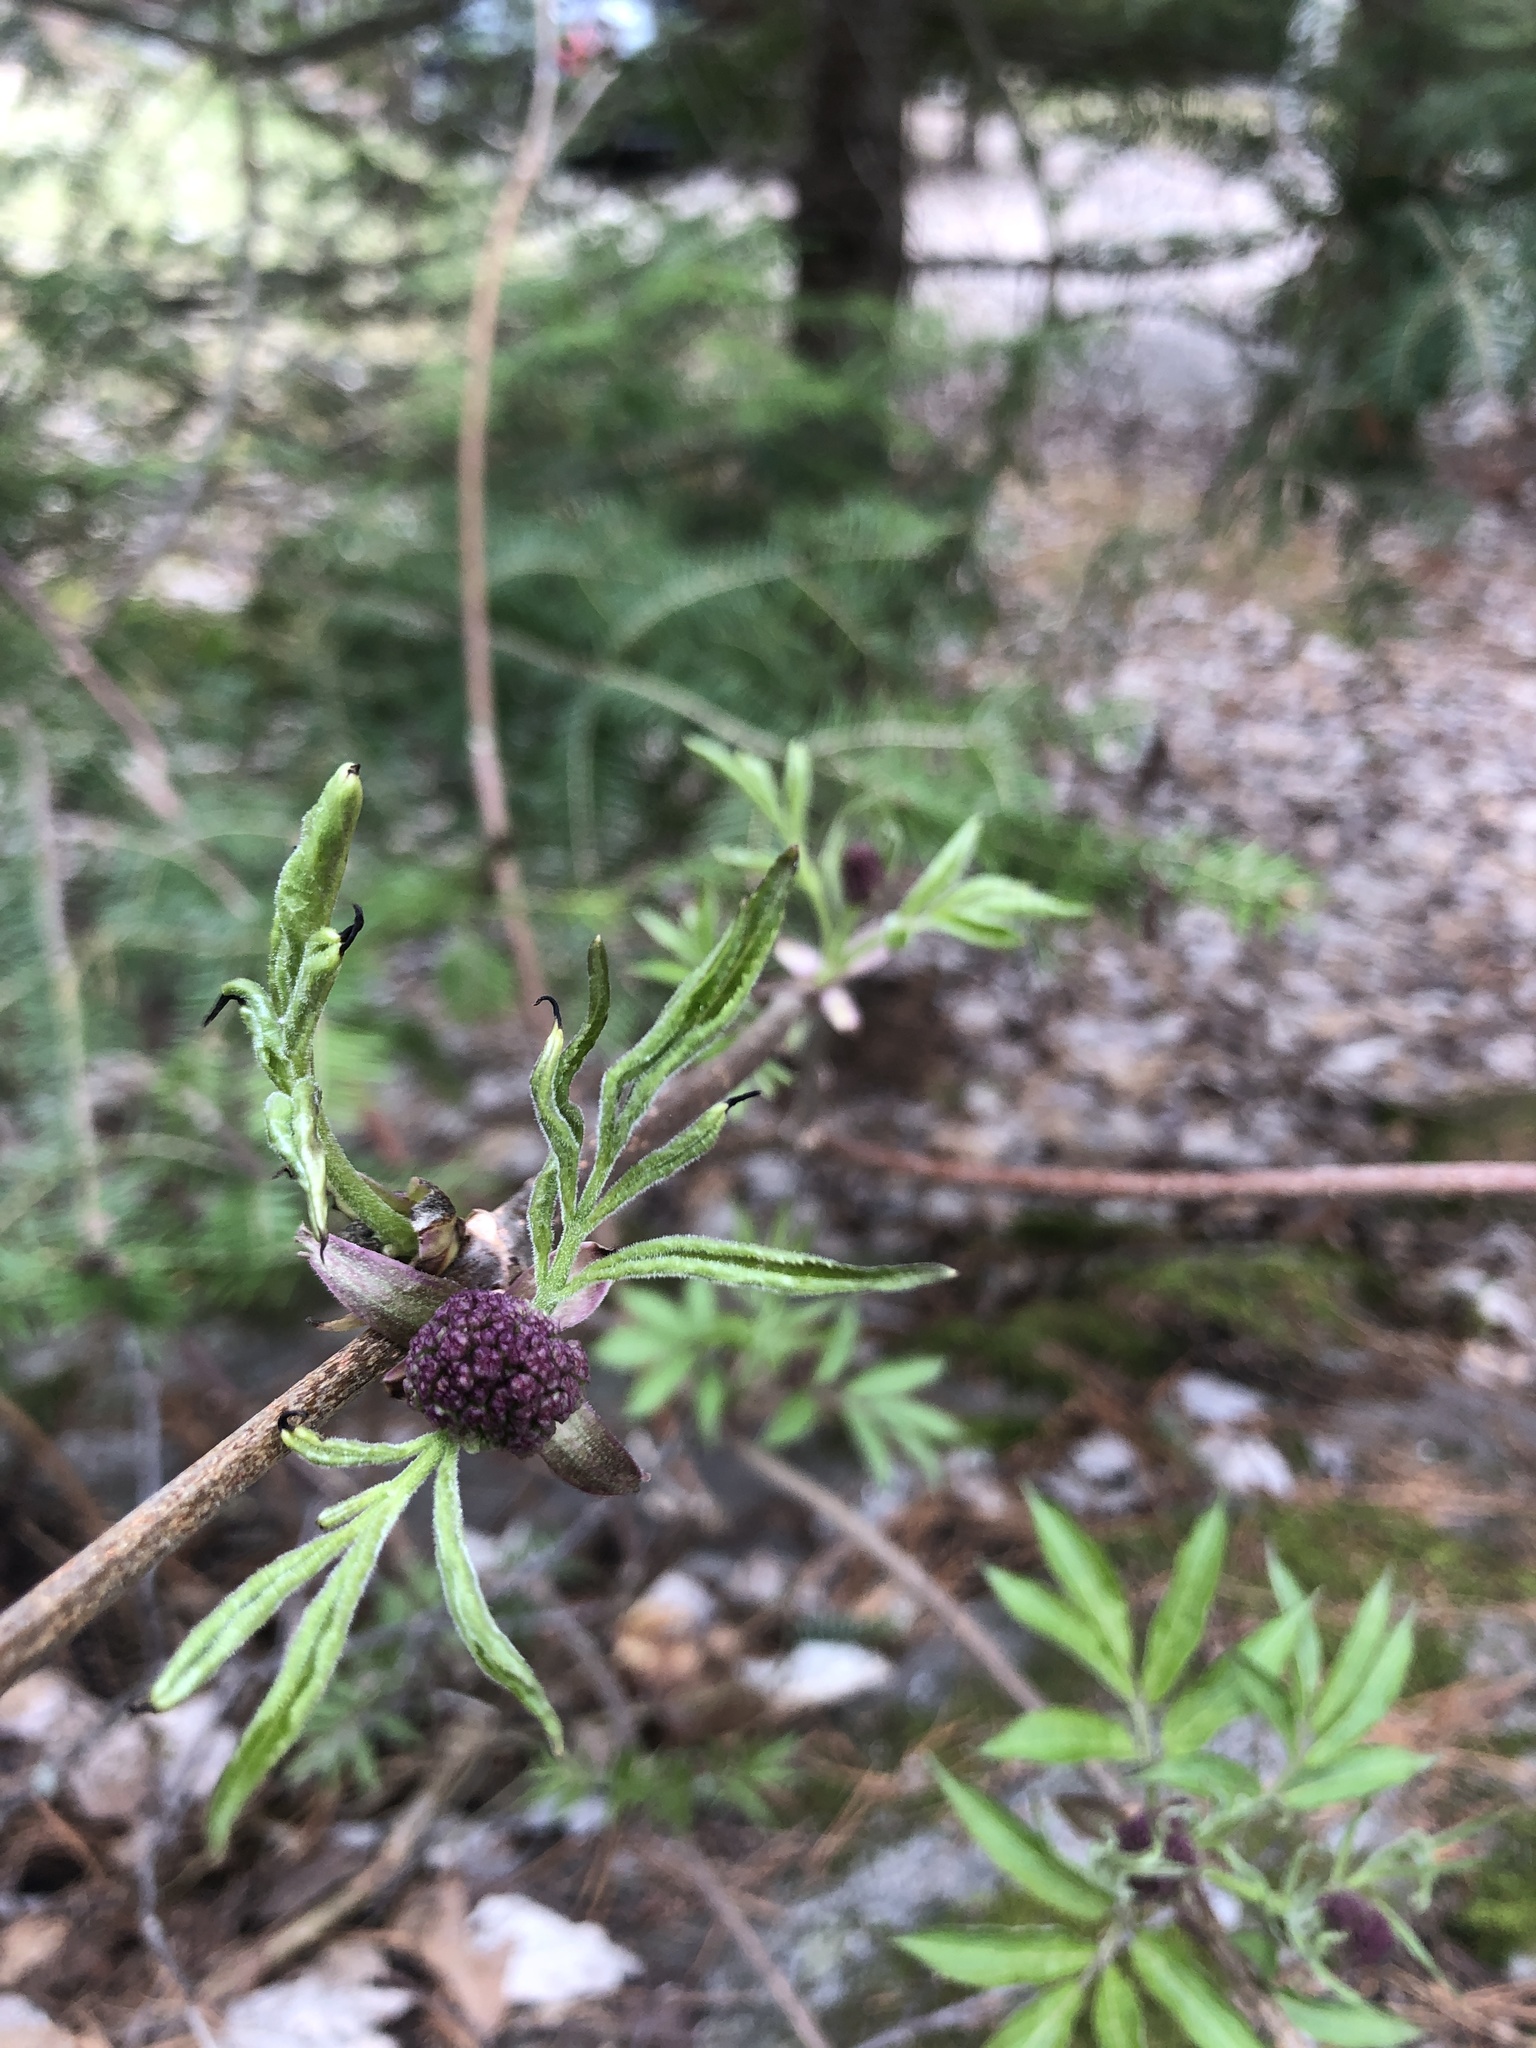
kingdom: Plantae
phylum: Tracheophyta
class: Magnoliopsida
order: Dipsacales
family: Viburnaceae
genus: Sambucus
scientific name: Sambucus racemosa
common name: Red-berried elder
